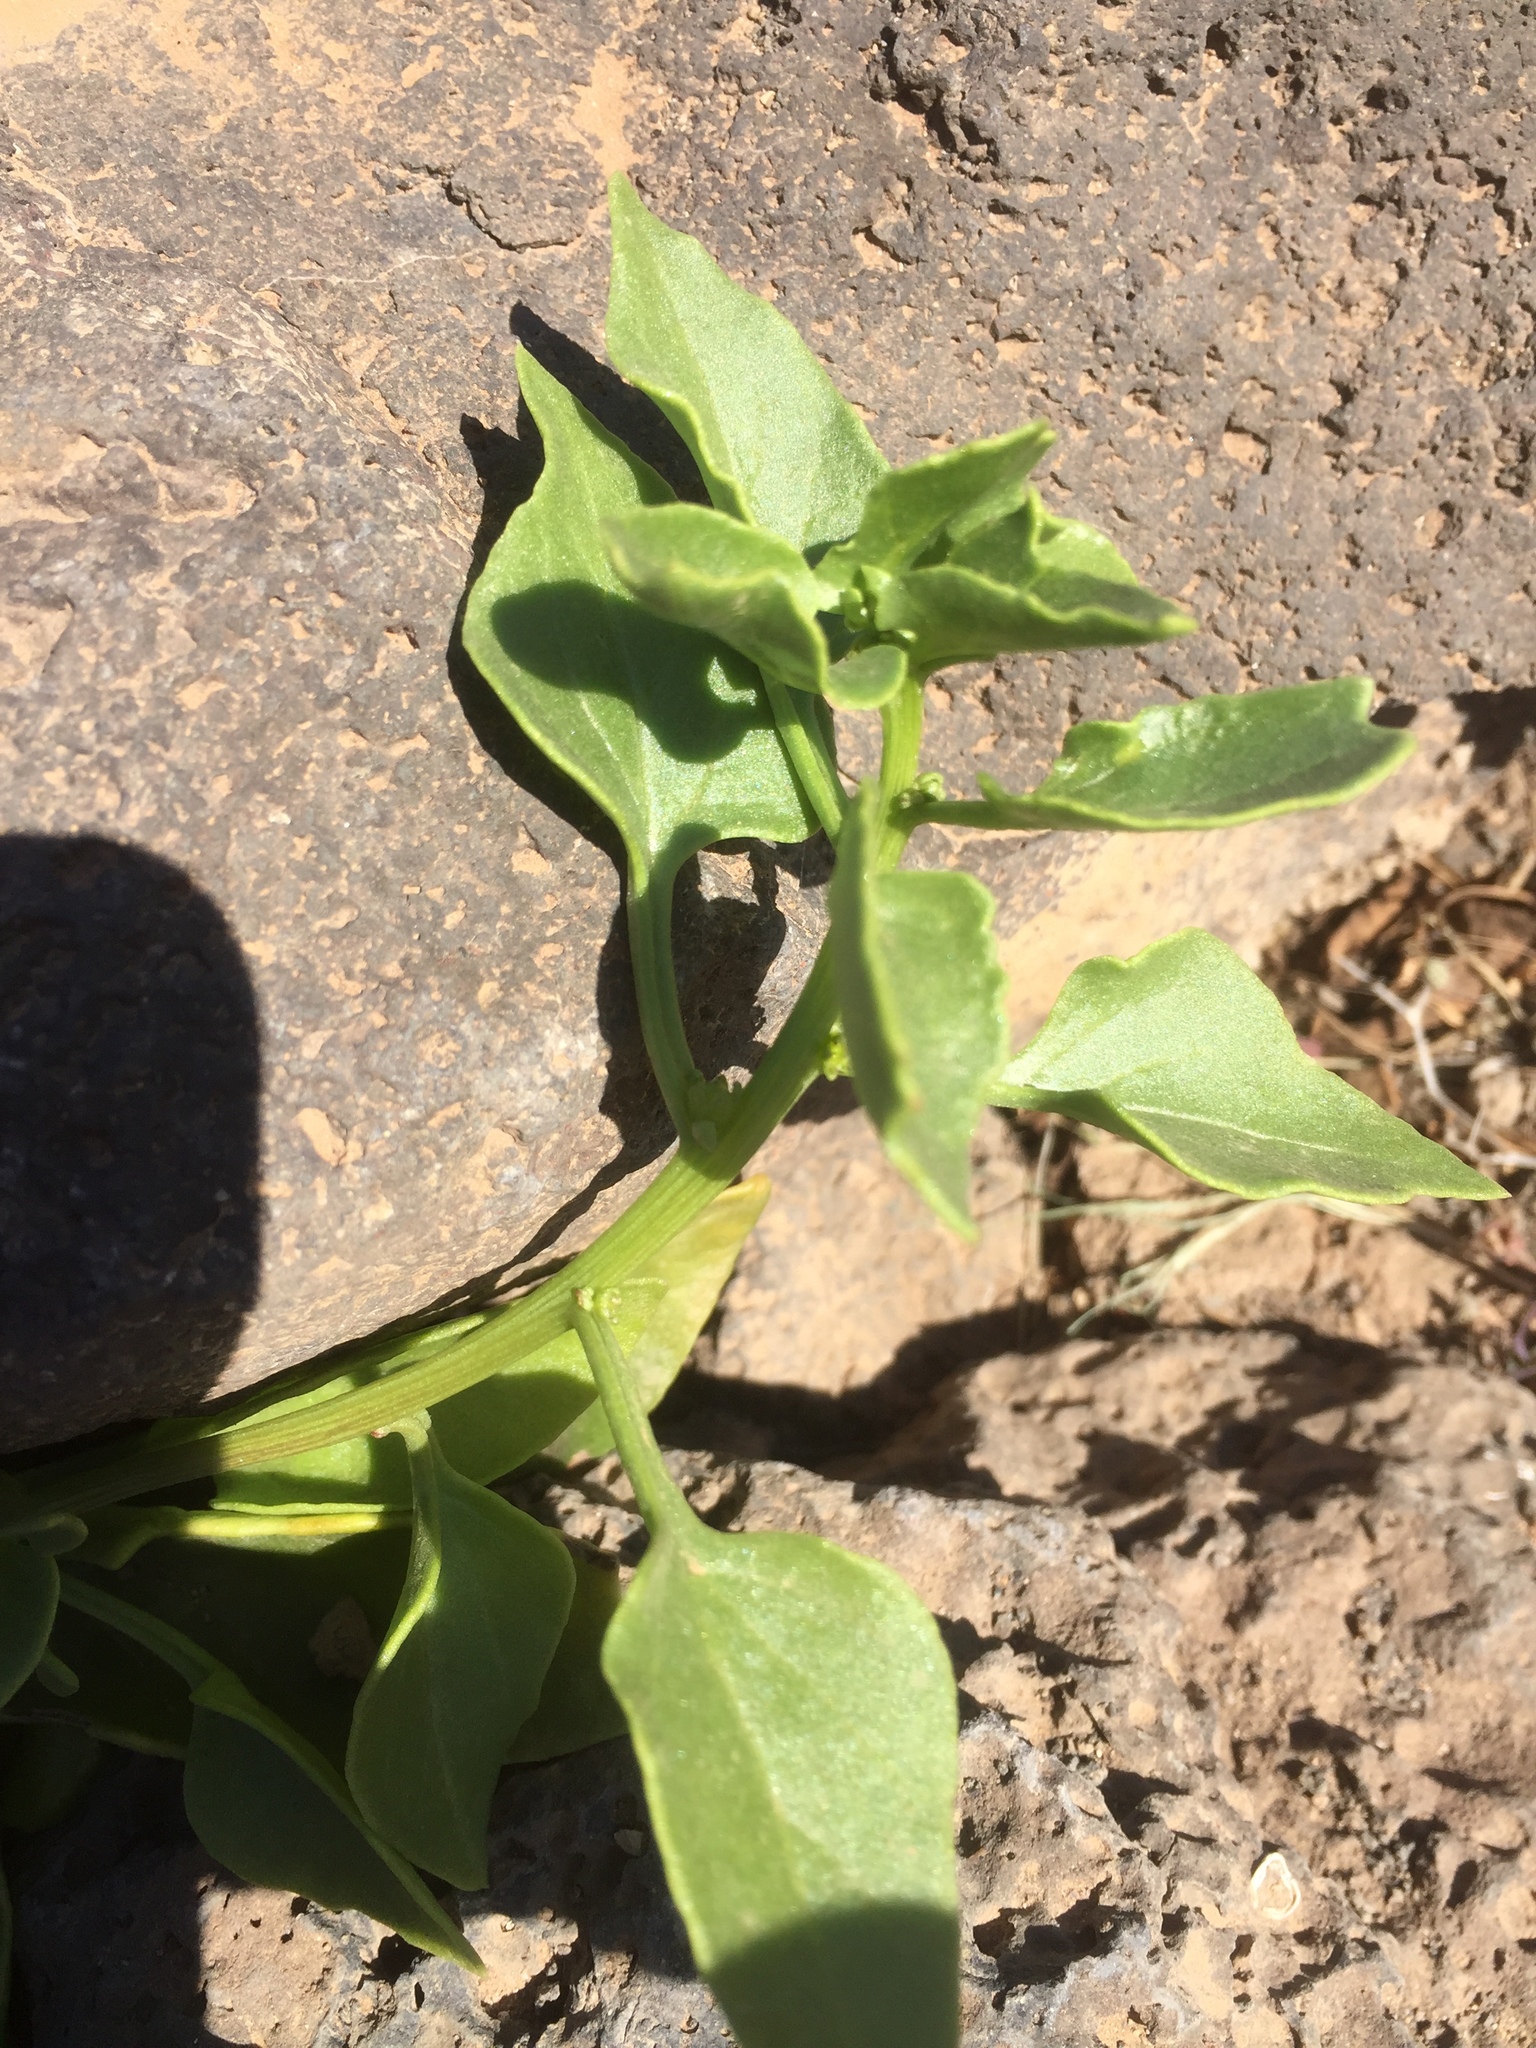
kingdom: Plantae
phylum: Tracheophyta
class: Magnoliopsida
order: Caryophyllales
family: Amaranthaceae
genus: Patellifolia
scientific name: Patellifolia procumbens
